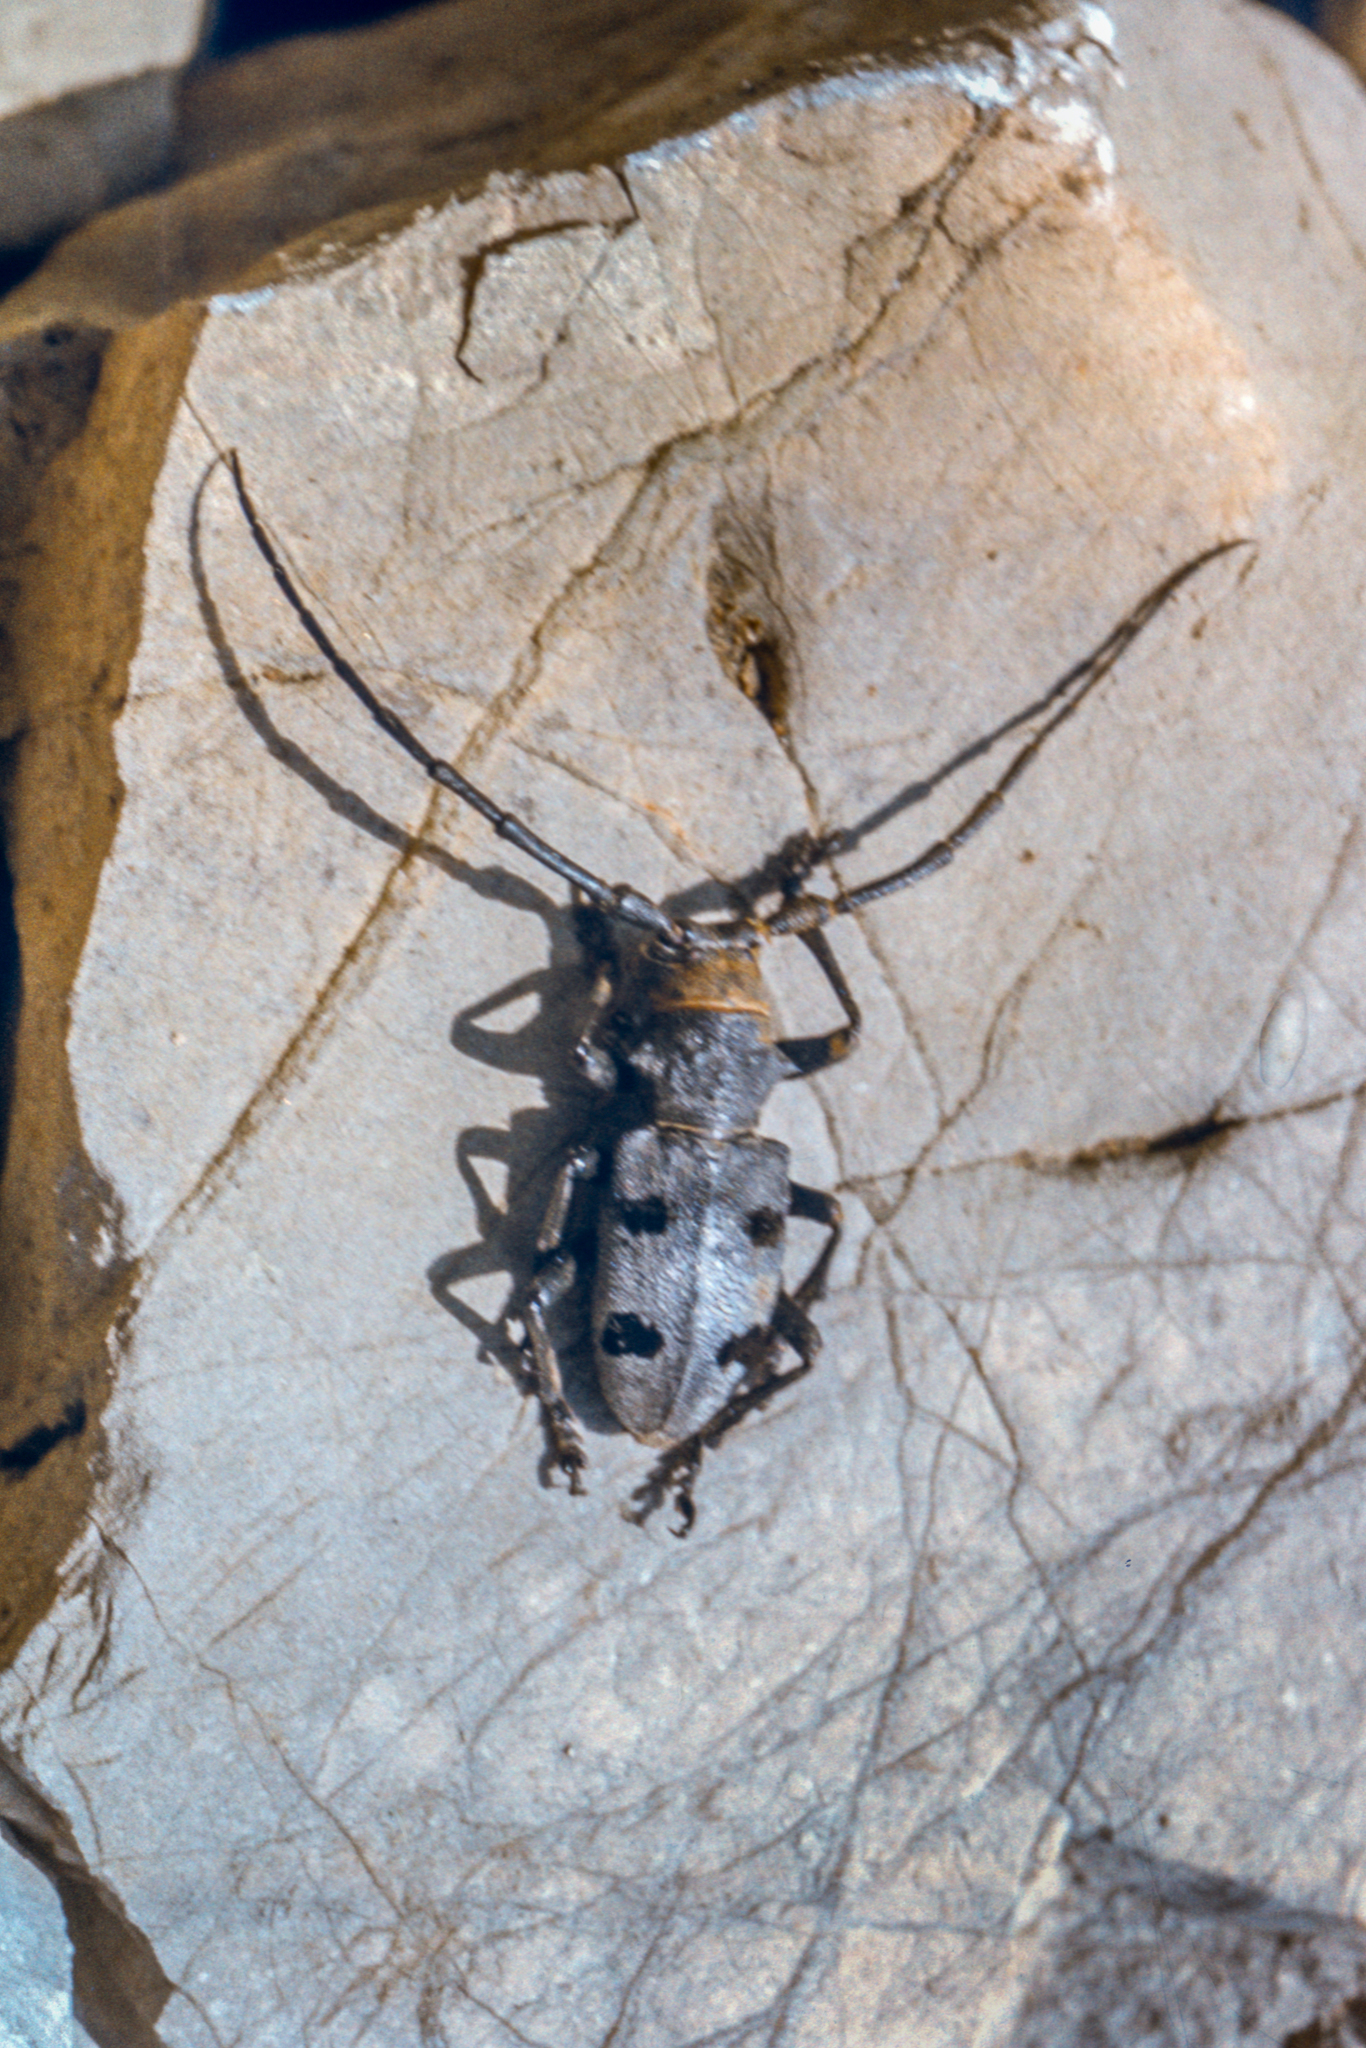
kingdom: Animalia
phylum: Arthropoda
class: Insecta
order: Coleoptera
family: Cerambycidae
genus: Morimus
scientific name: Morimus funereus
